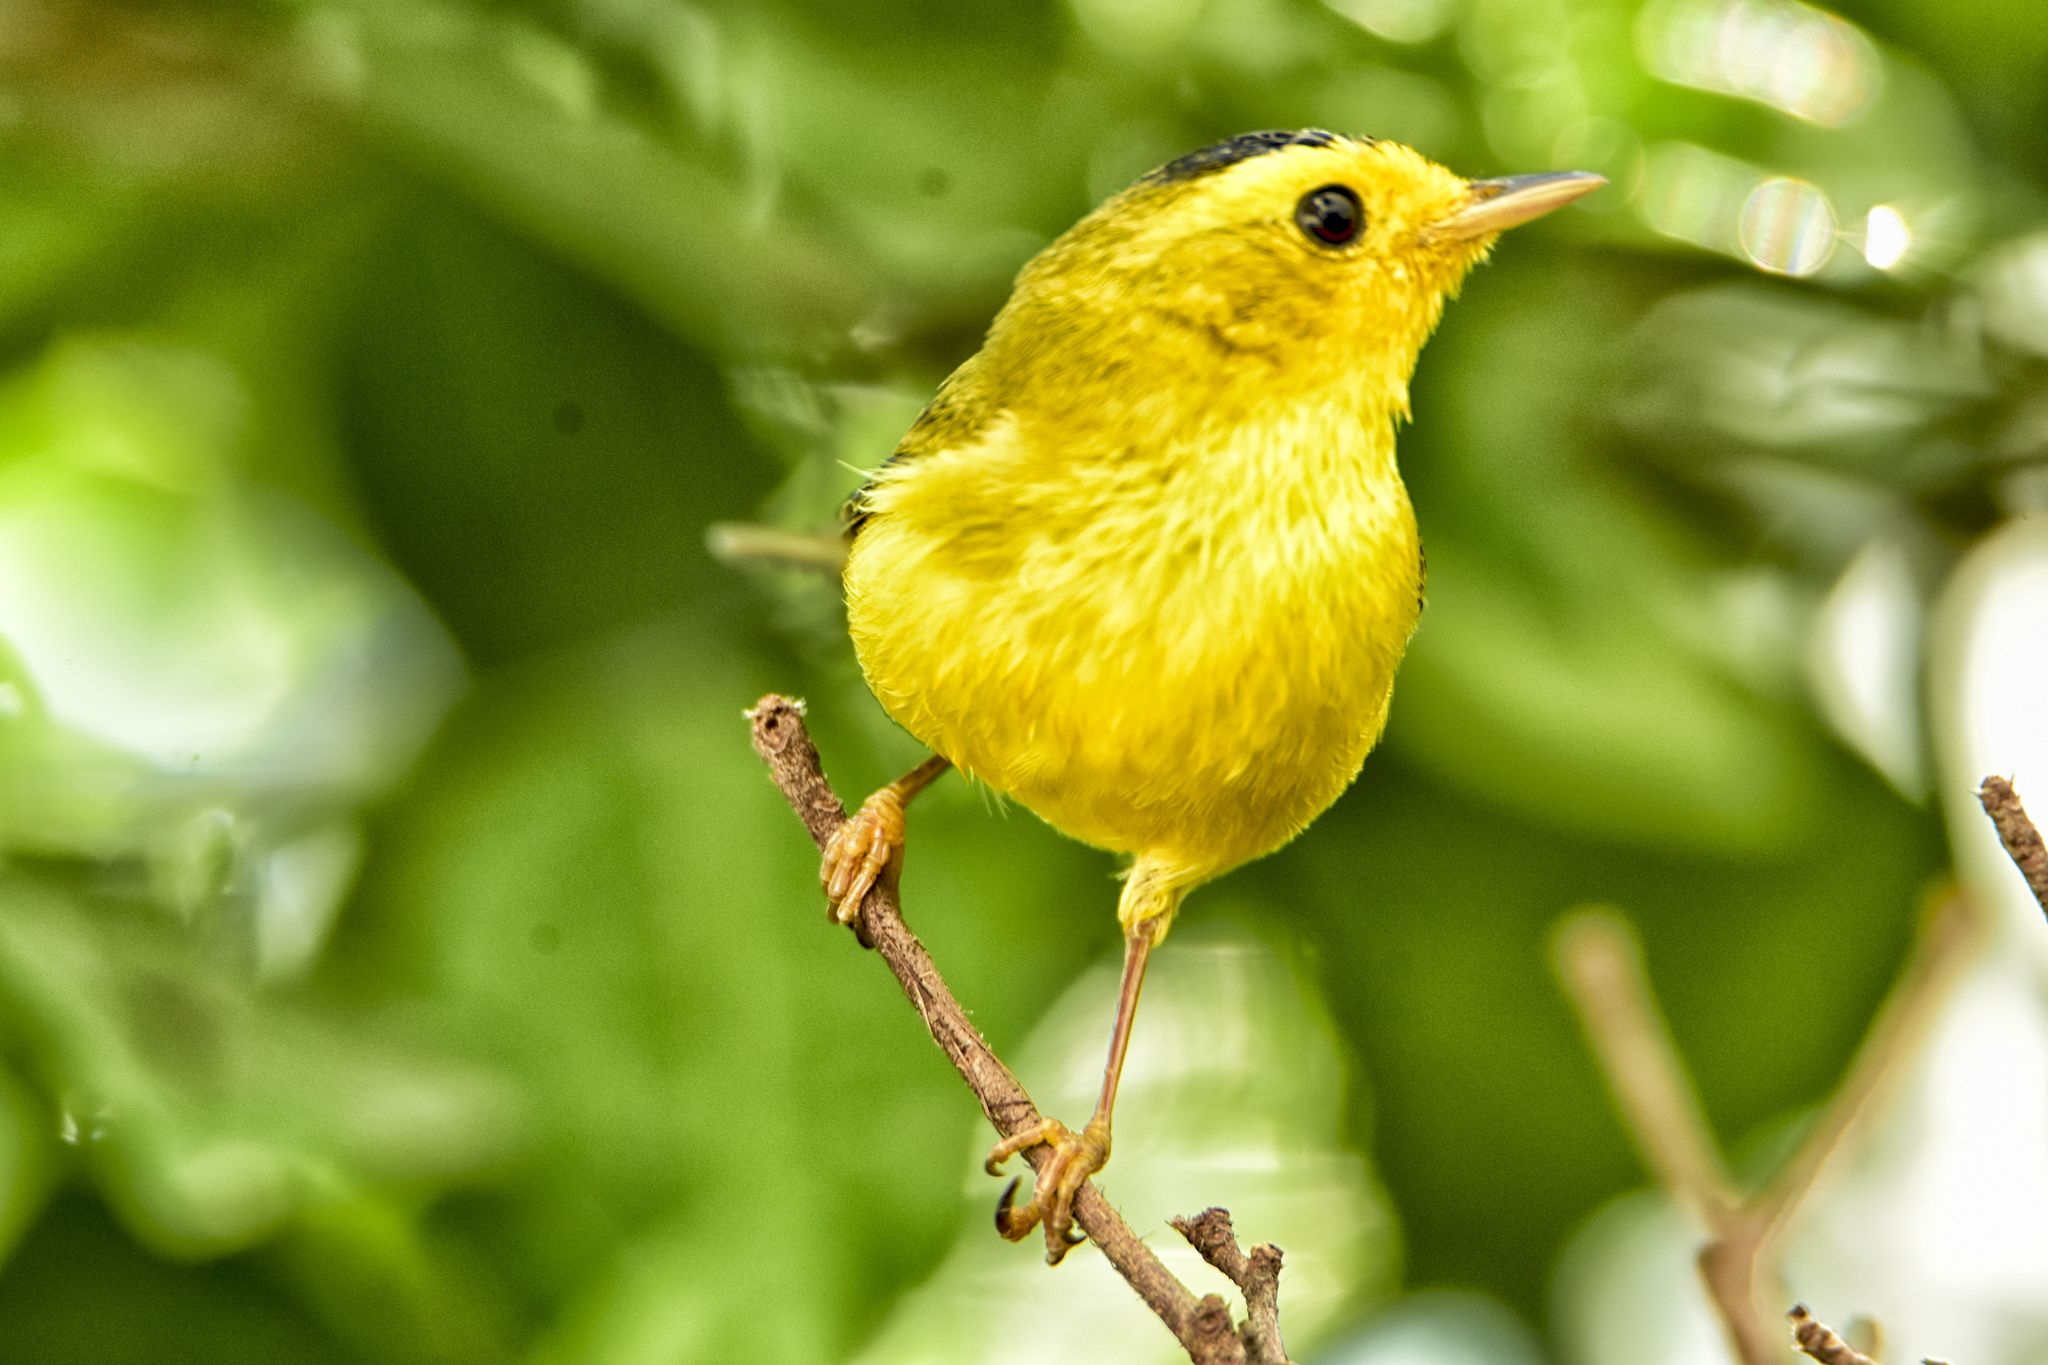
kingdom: Animalia
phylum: Chordata
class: Aves
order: Passeriformes
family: Parulidae
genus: Cardellina
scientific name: Cardellina pusilla
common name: Wilson's warbler
